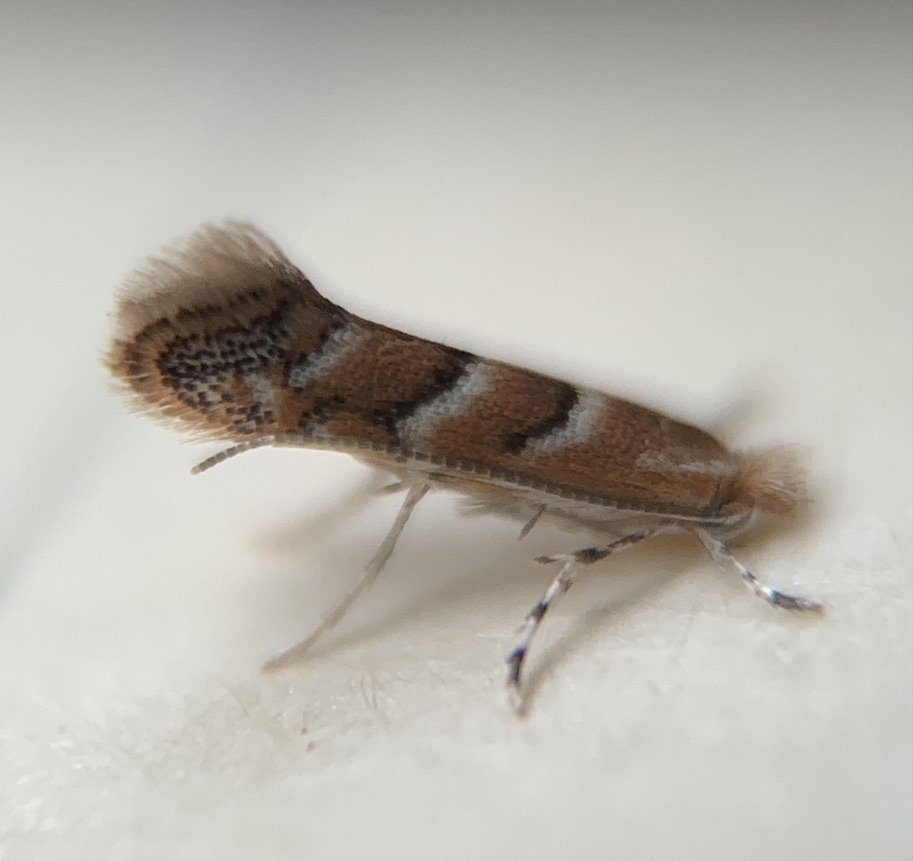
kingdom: Animalia
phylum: Arthropoda
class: Insecta
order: Lepidoptera
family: Gracillariidae
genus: Cameraria
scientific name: Cameraria caryaefoliella
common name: Pecan leafminer moth
